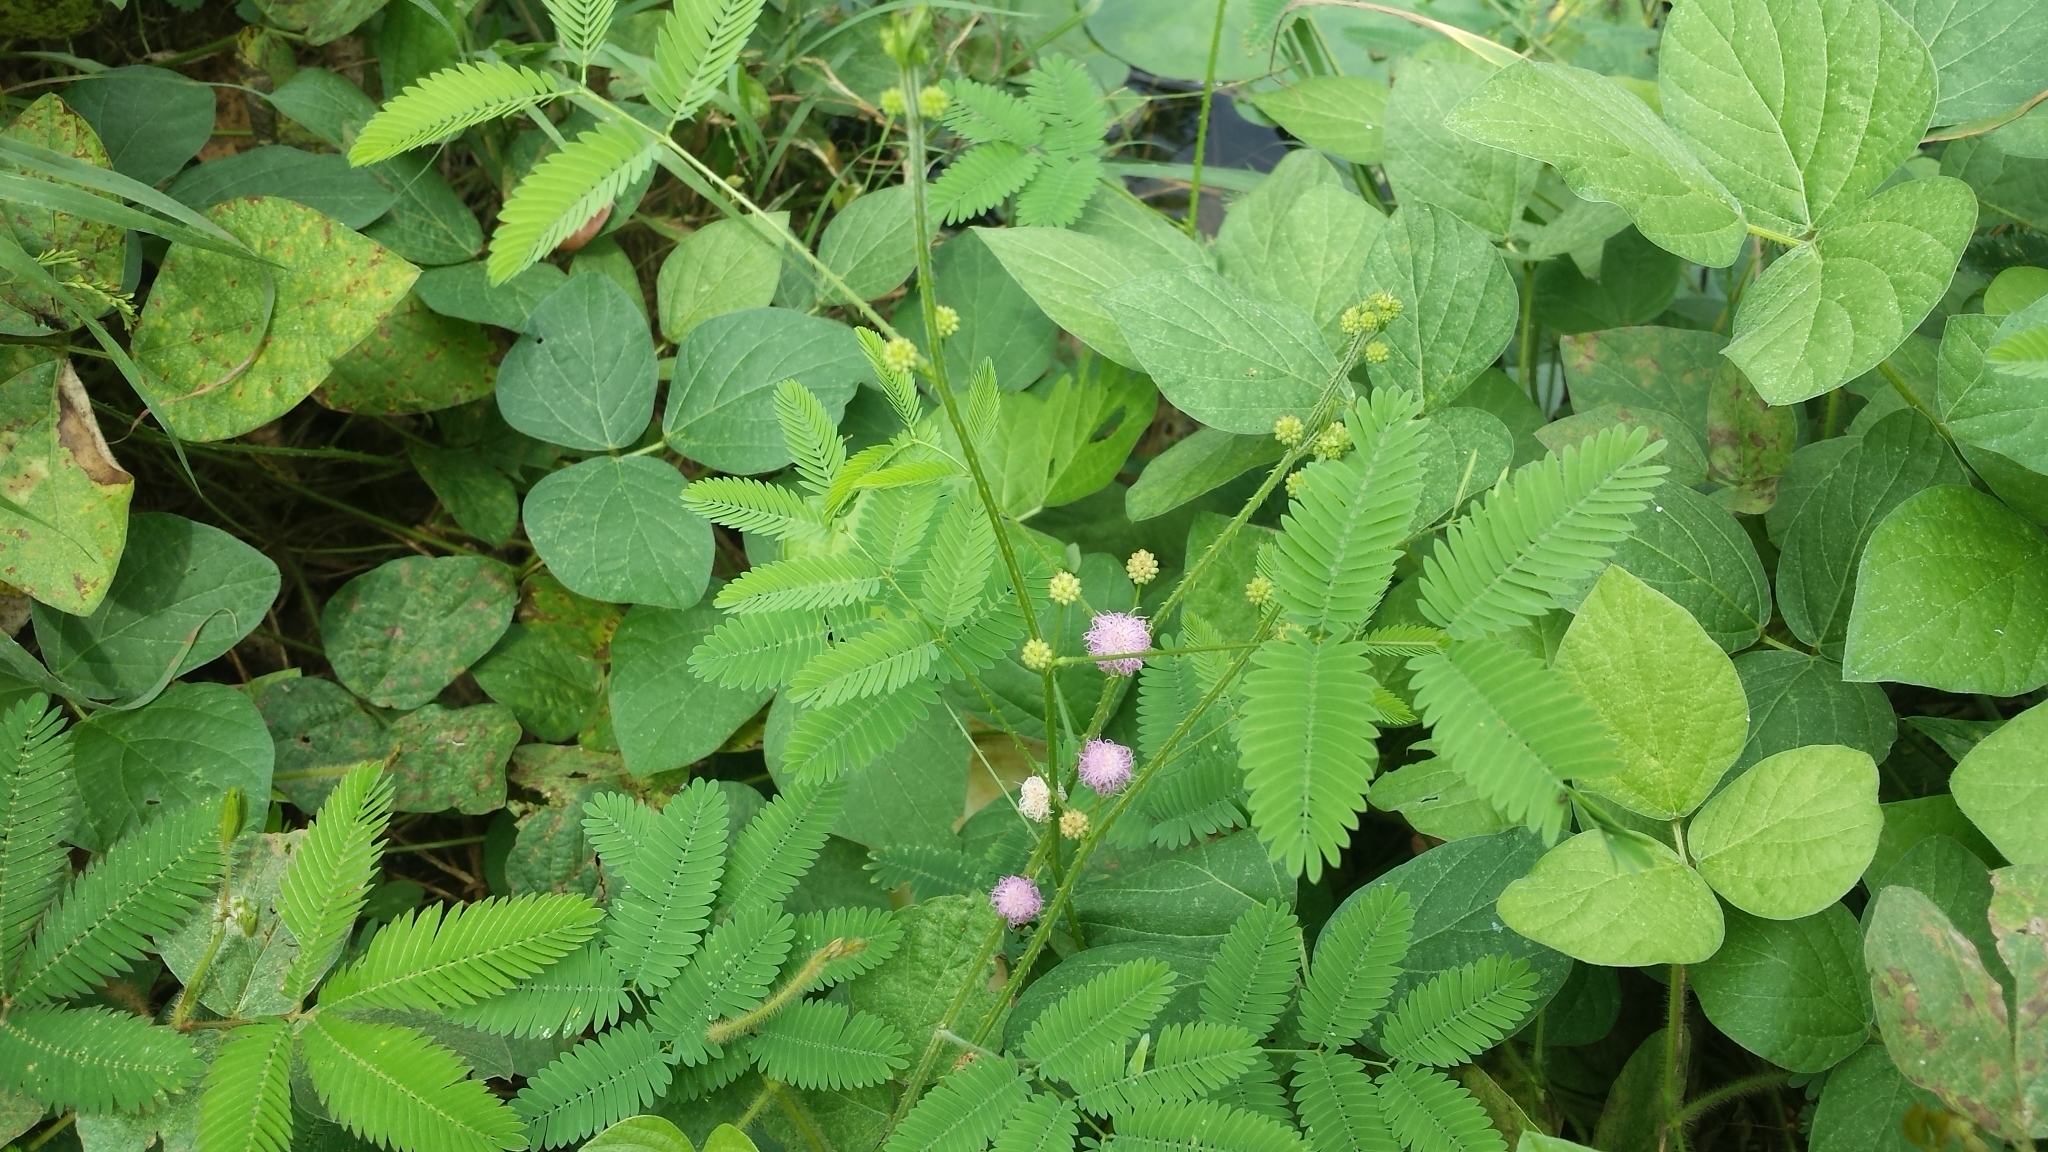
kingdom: Plantae
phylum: Tracheophyta
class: Magnoliopsida
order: Fabales
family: Fabaceae
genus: Mimosa
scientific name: Mimosa pudica
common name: Sensitive plant
